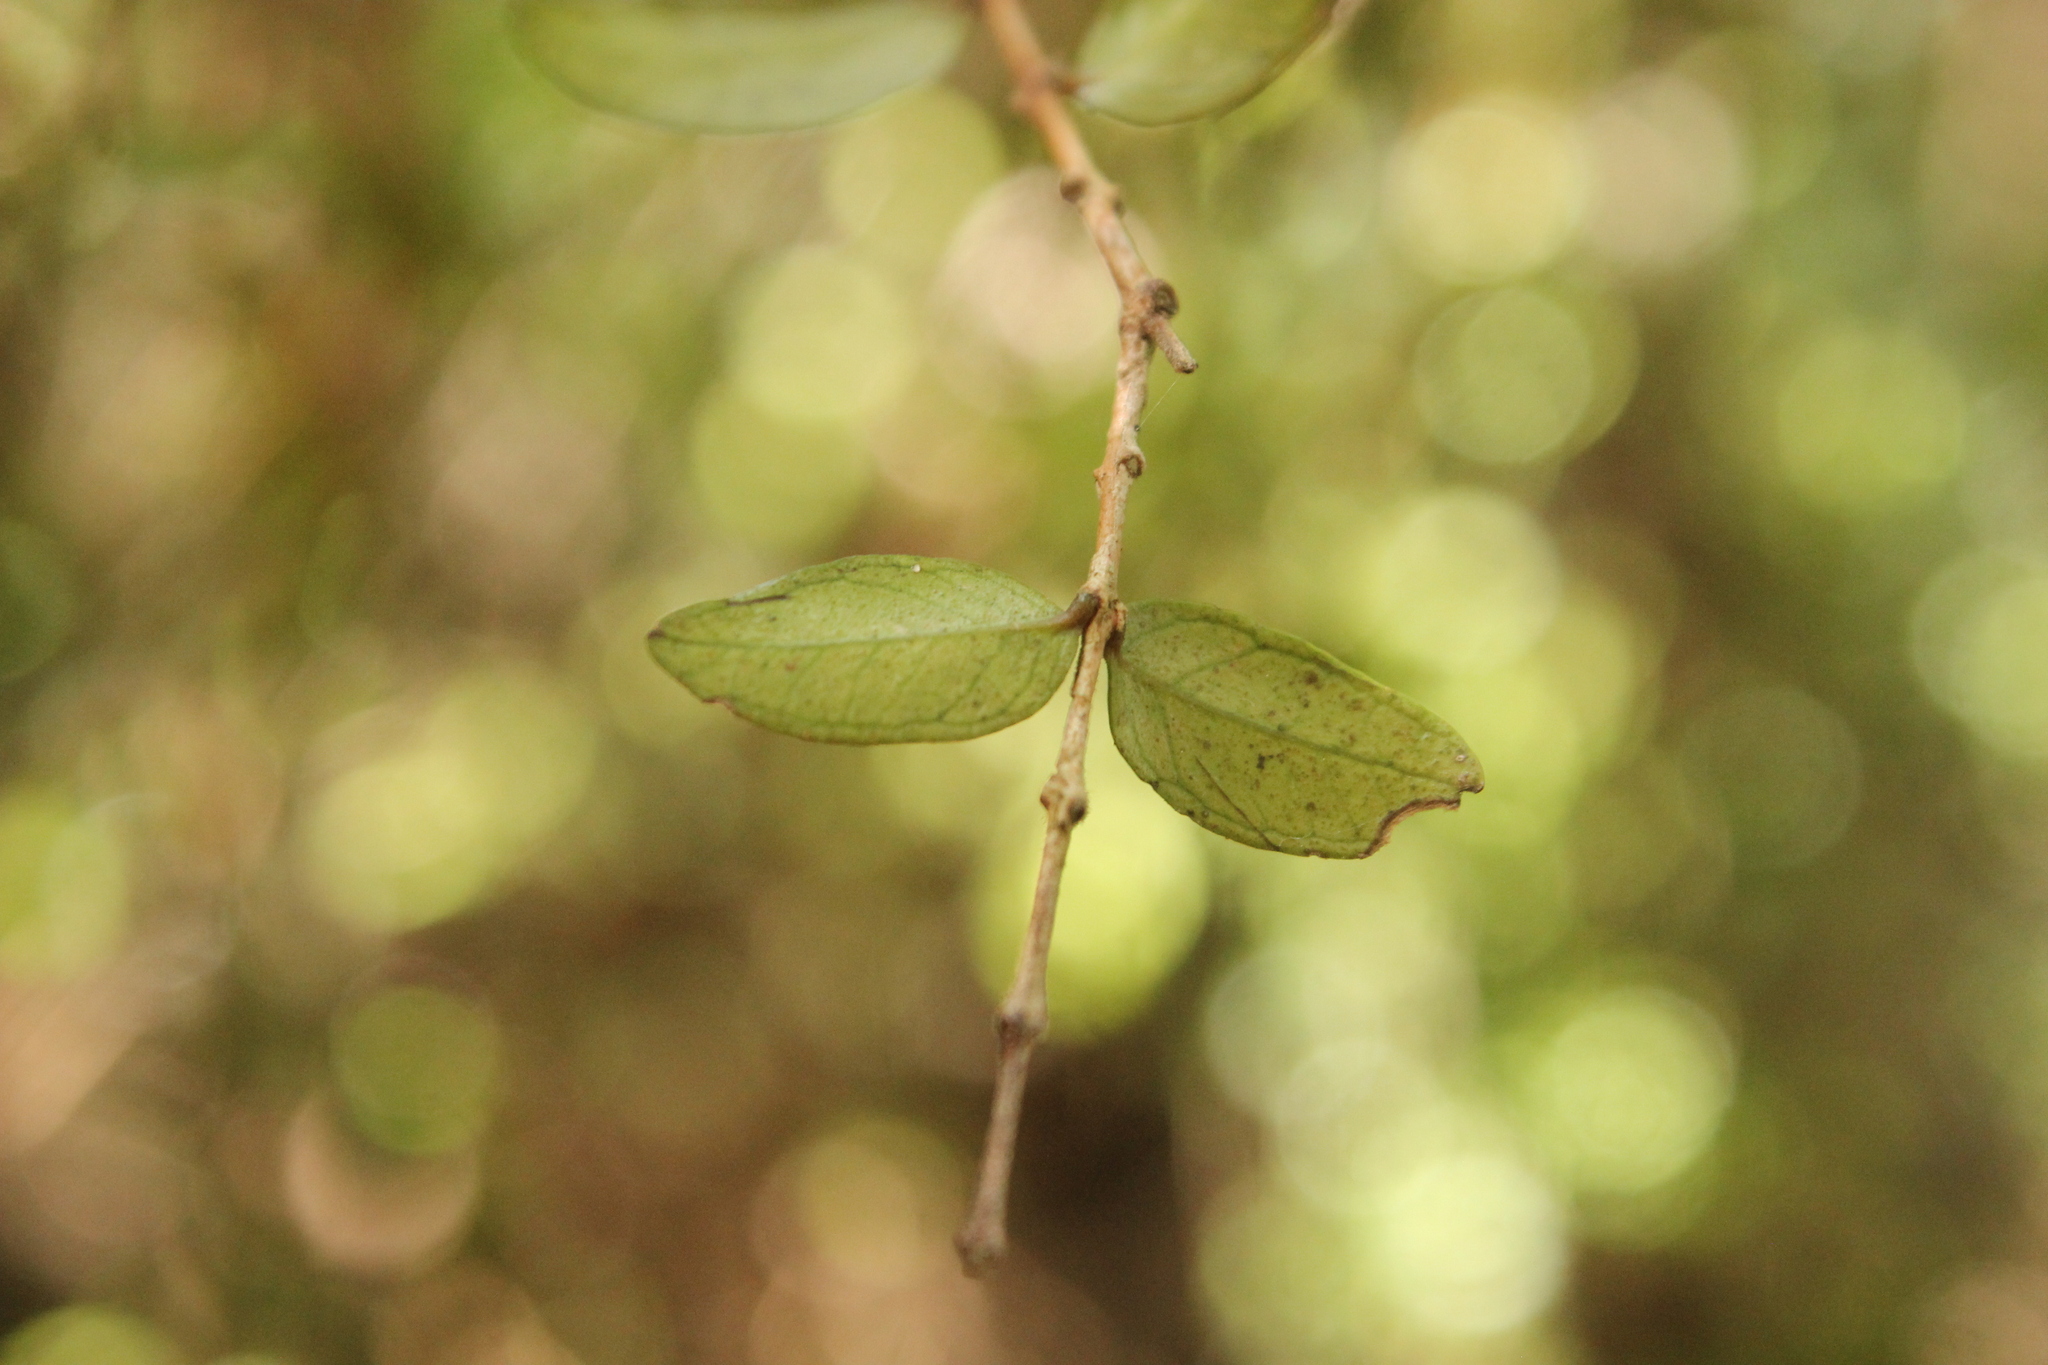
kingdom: Plantae
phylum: Tracheophyta
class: Magnoliopsida
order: Myrtales
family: Myrtaceae
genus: Metrosideros
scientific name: Metrosideros diffusa
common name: Small ratavine
